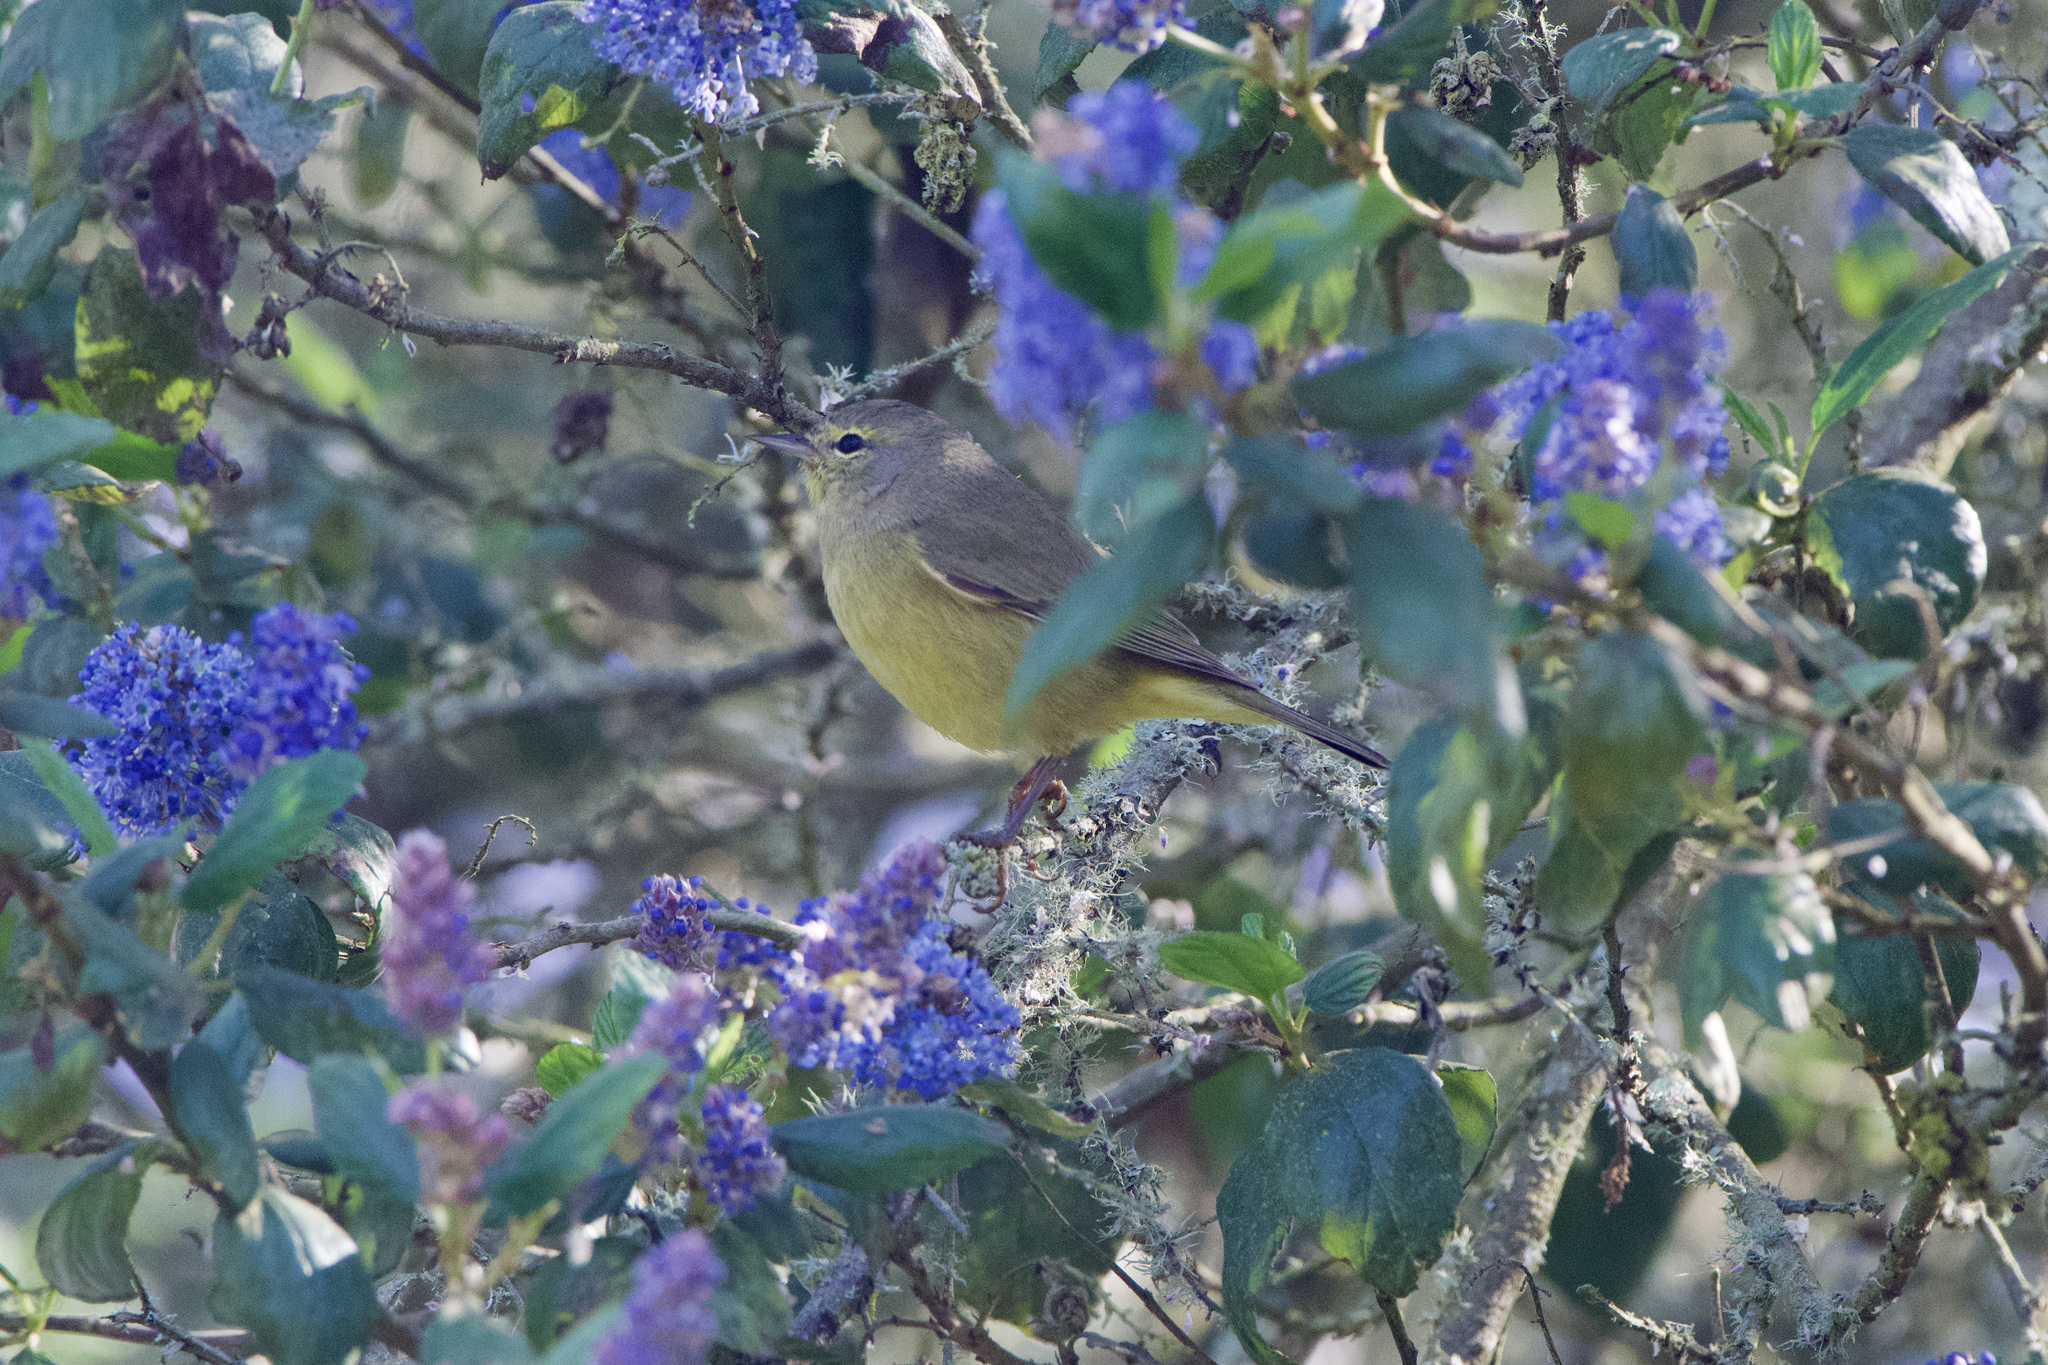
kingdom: Animalia
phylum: Chordata
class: Aves
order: Passeriformes
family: Parulidae
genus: Leiothlypis
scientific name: Leiothlypis celata
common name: Orange-crowned warbler
